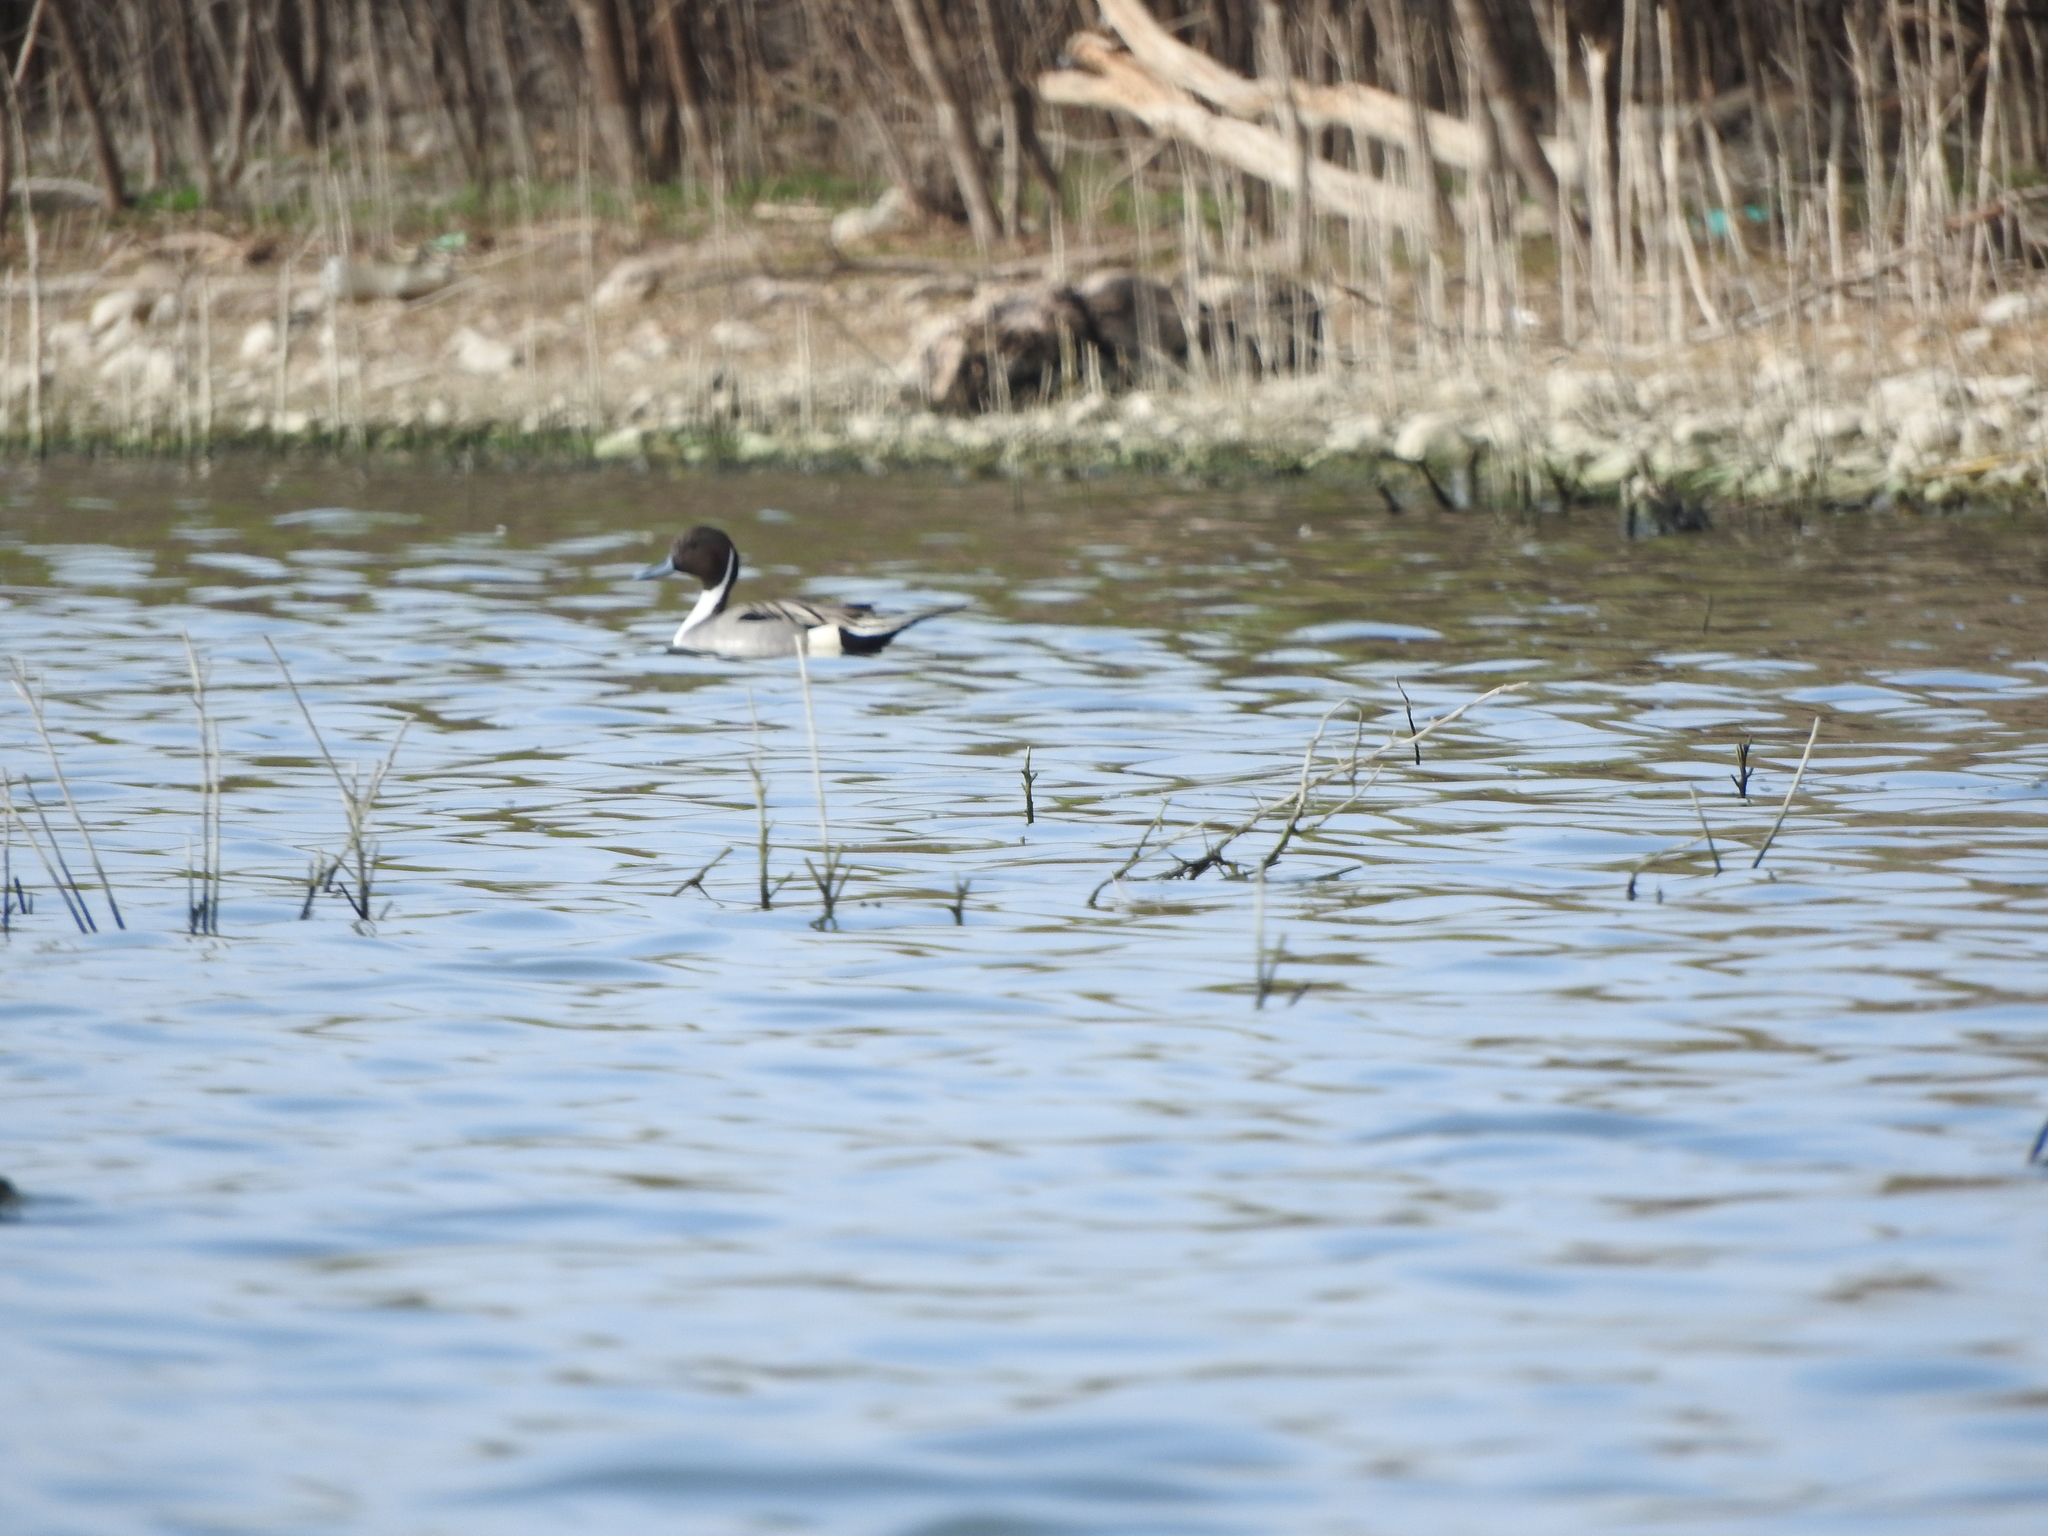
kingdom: Animalia
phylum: Chordata
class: Aves
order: Anseriformes
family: Anatidae
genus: Anas
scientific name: Anas acuta
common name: Northern pintail
